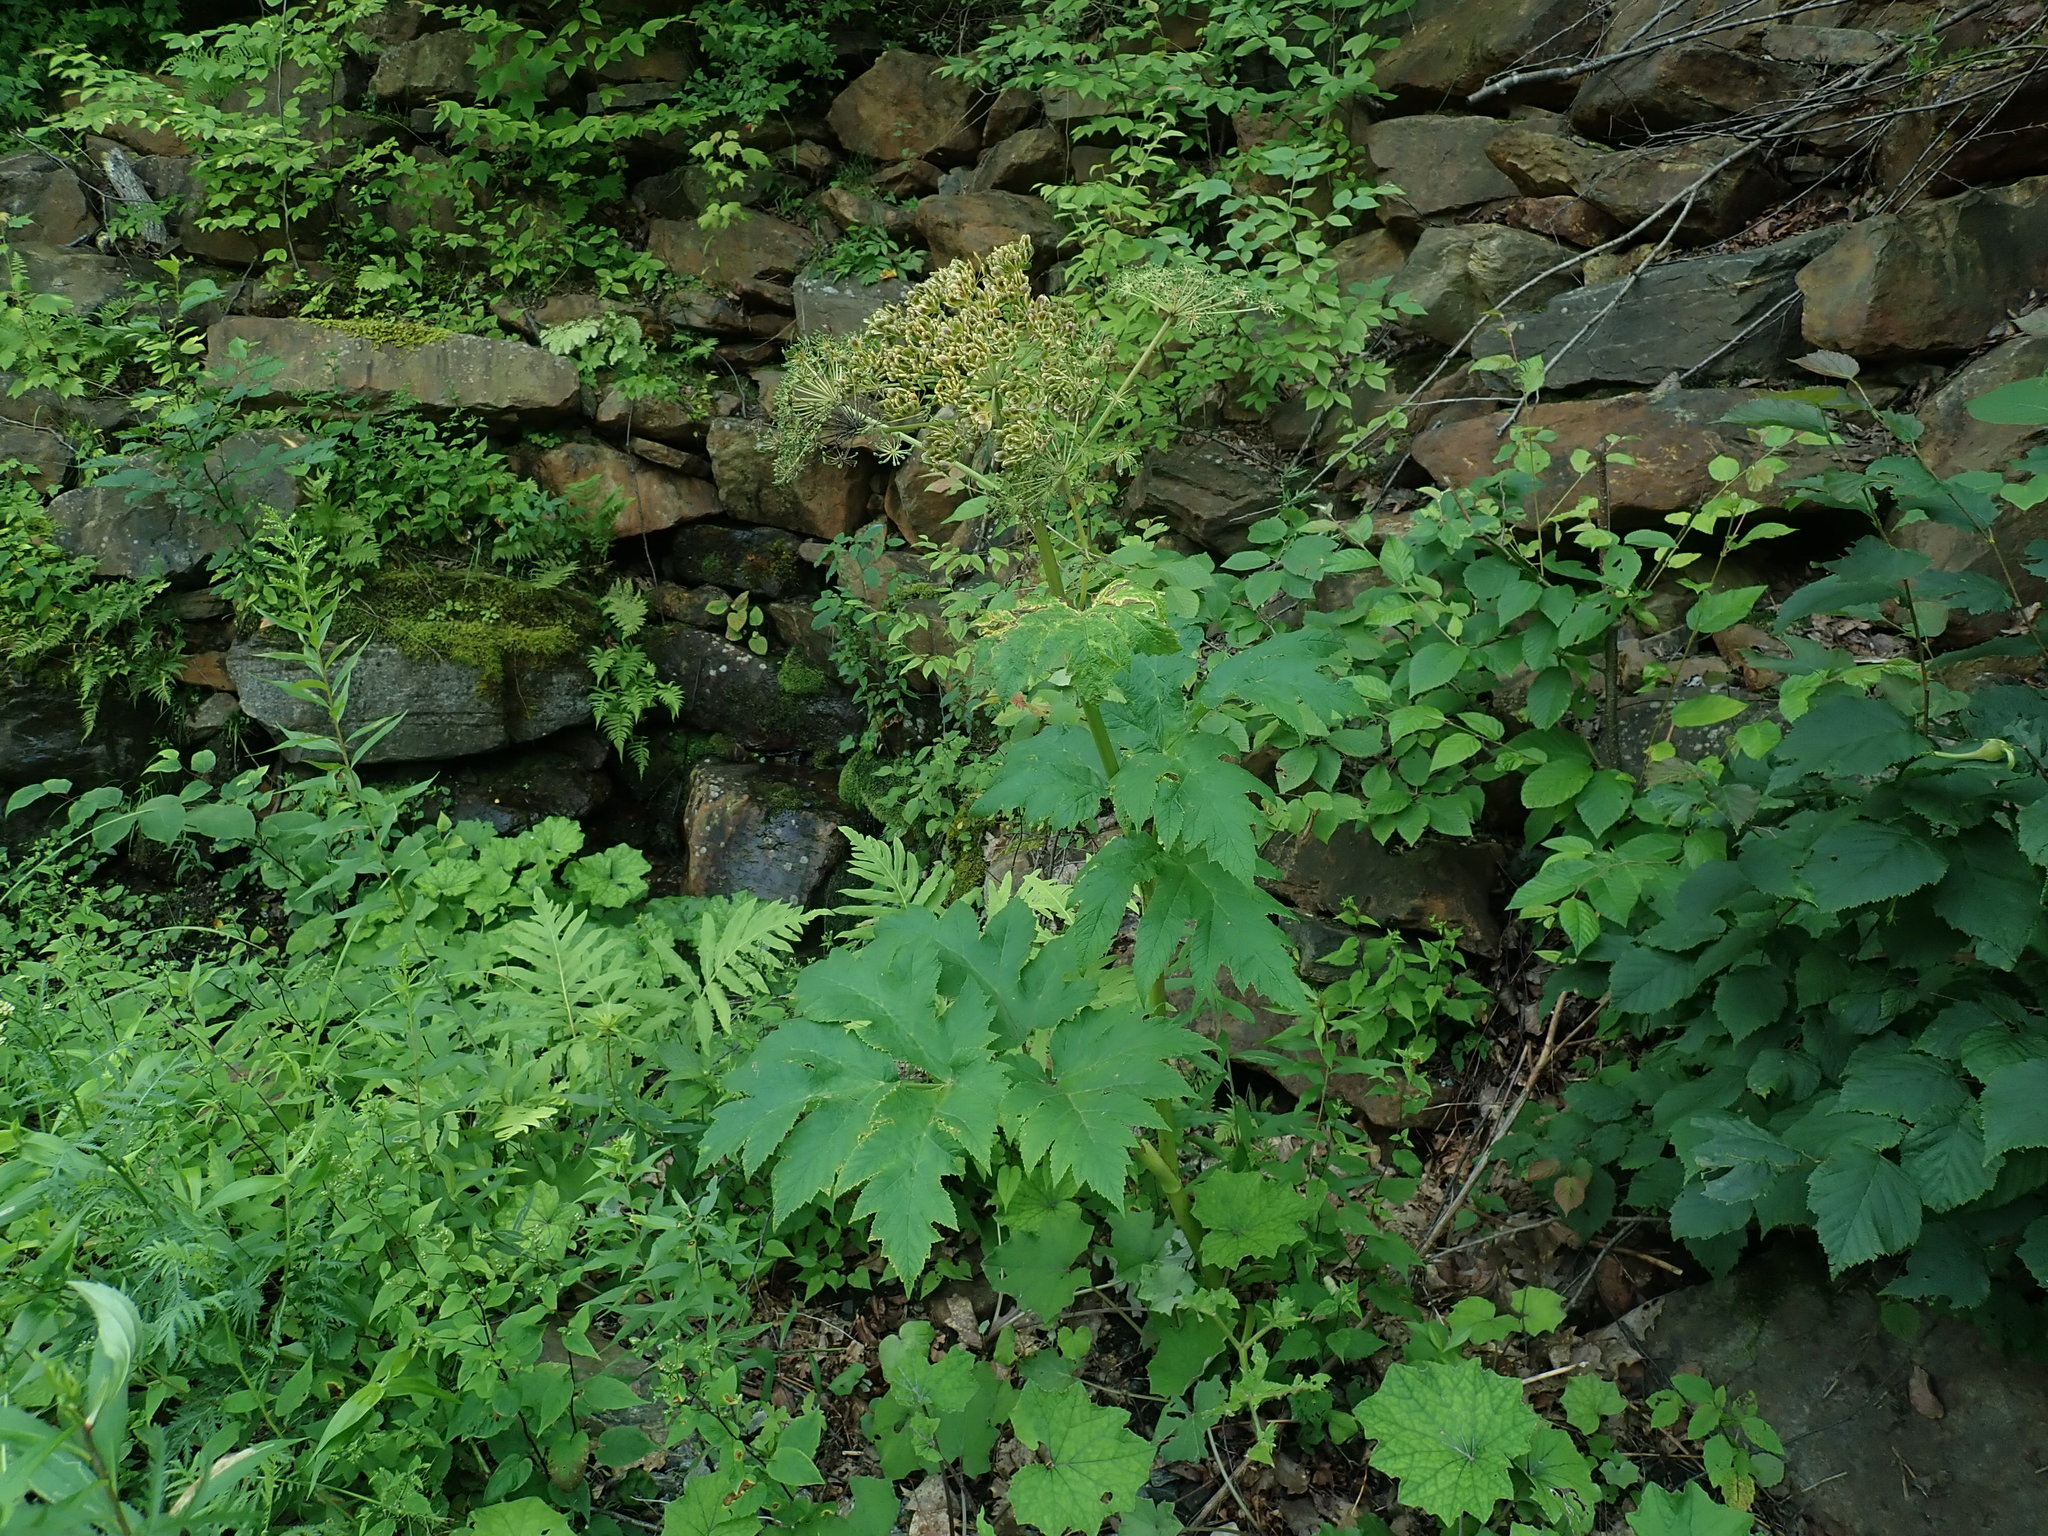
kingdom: Plantae
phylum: Tracheophyta
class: Magnoliopsida
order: Apiales
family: Apiaceae
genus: Heracleum
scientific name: Heracleum maximum
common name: American cow parsnip
